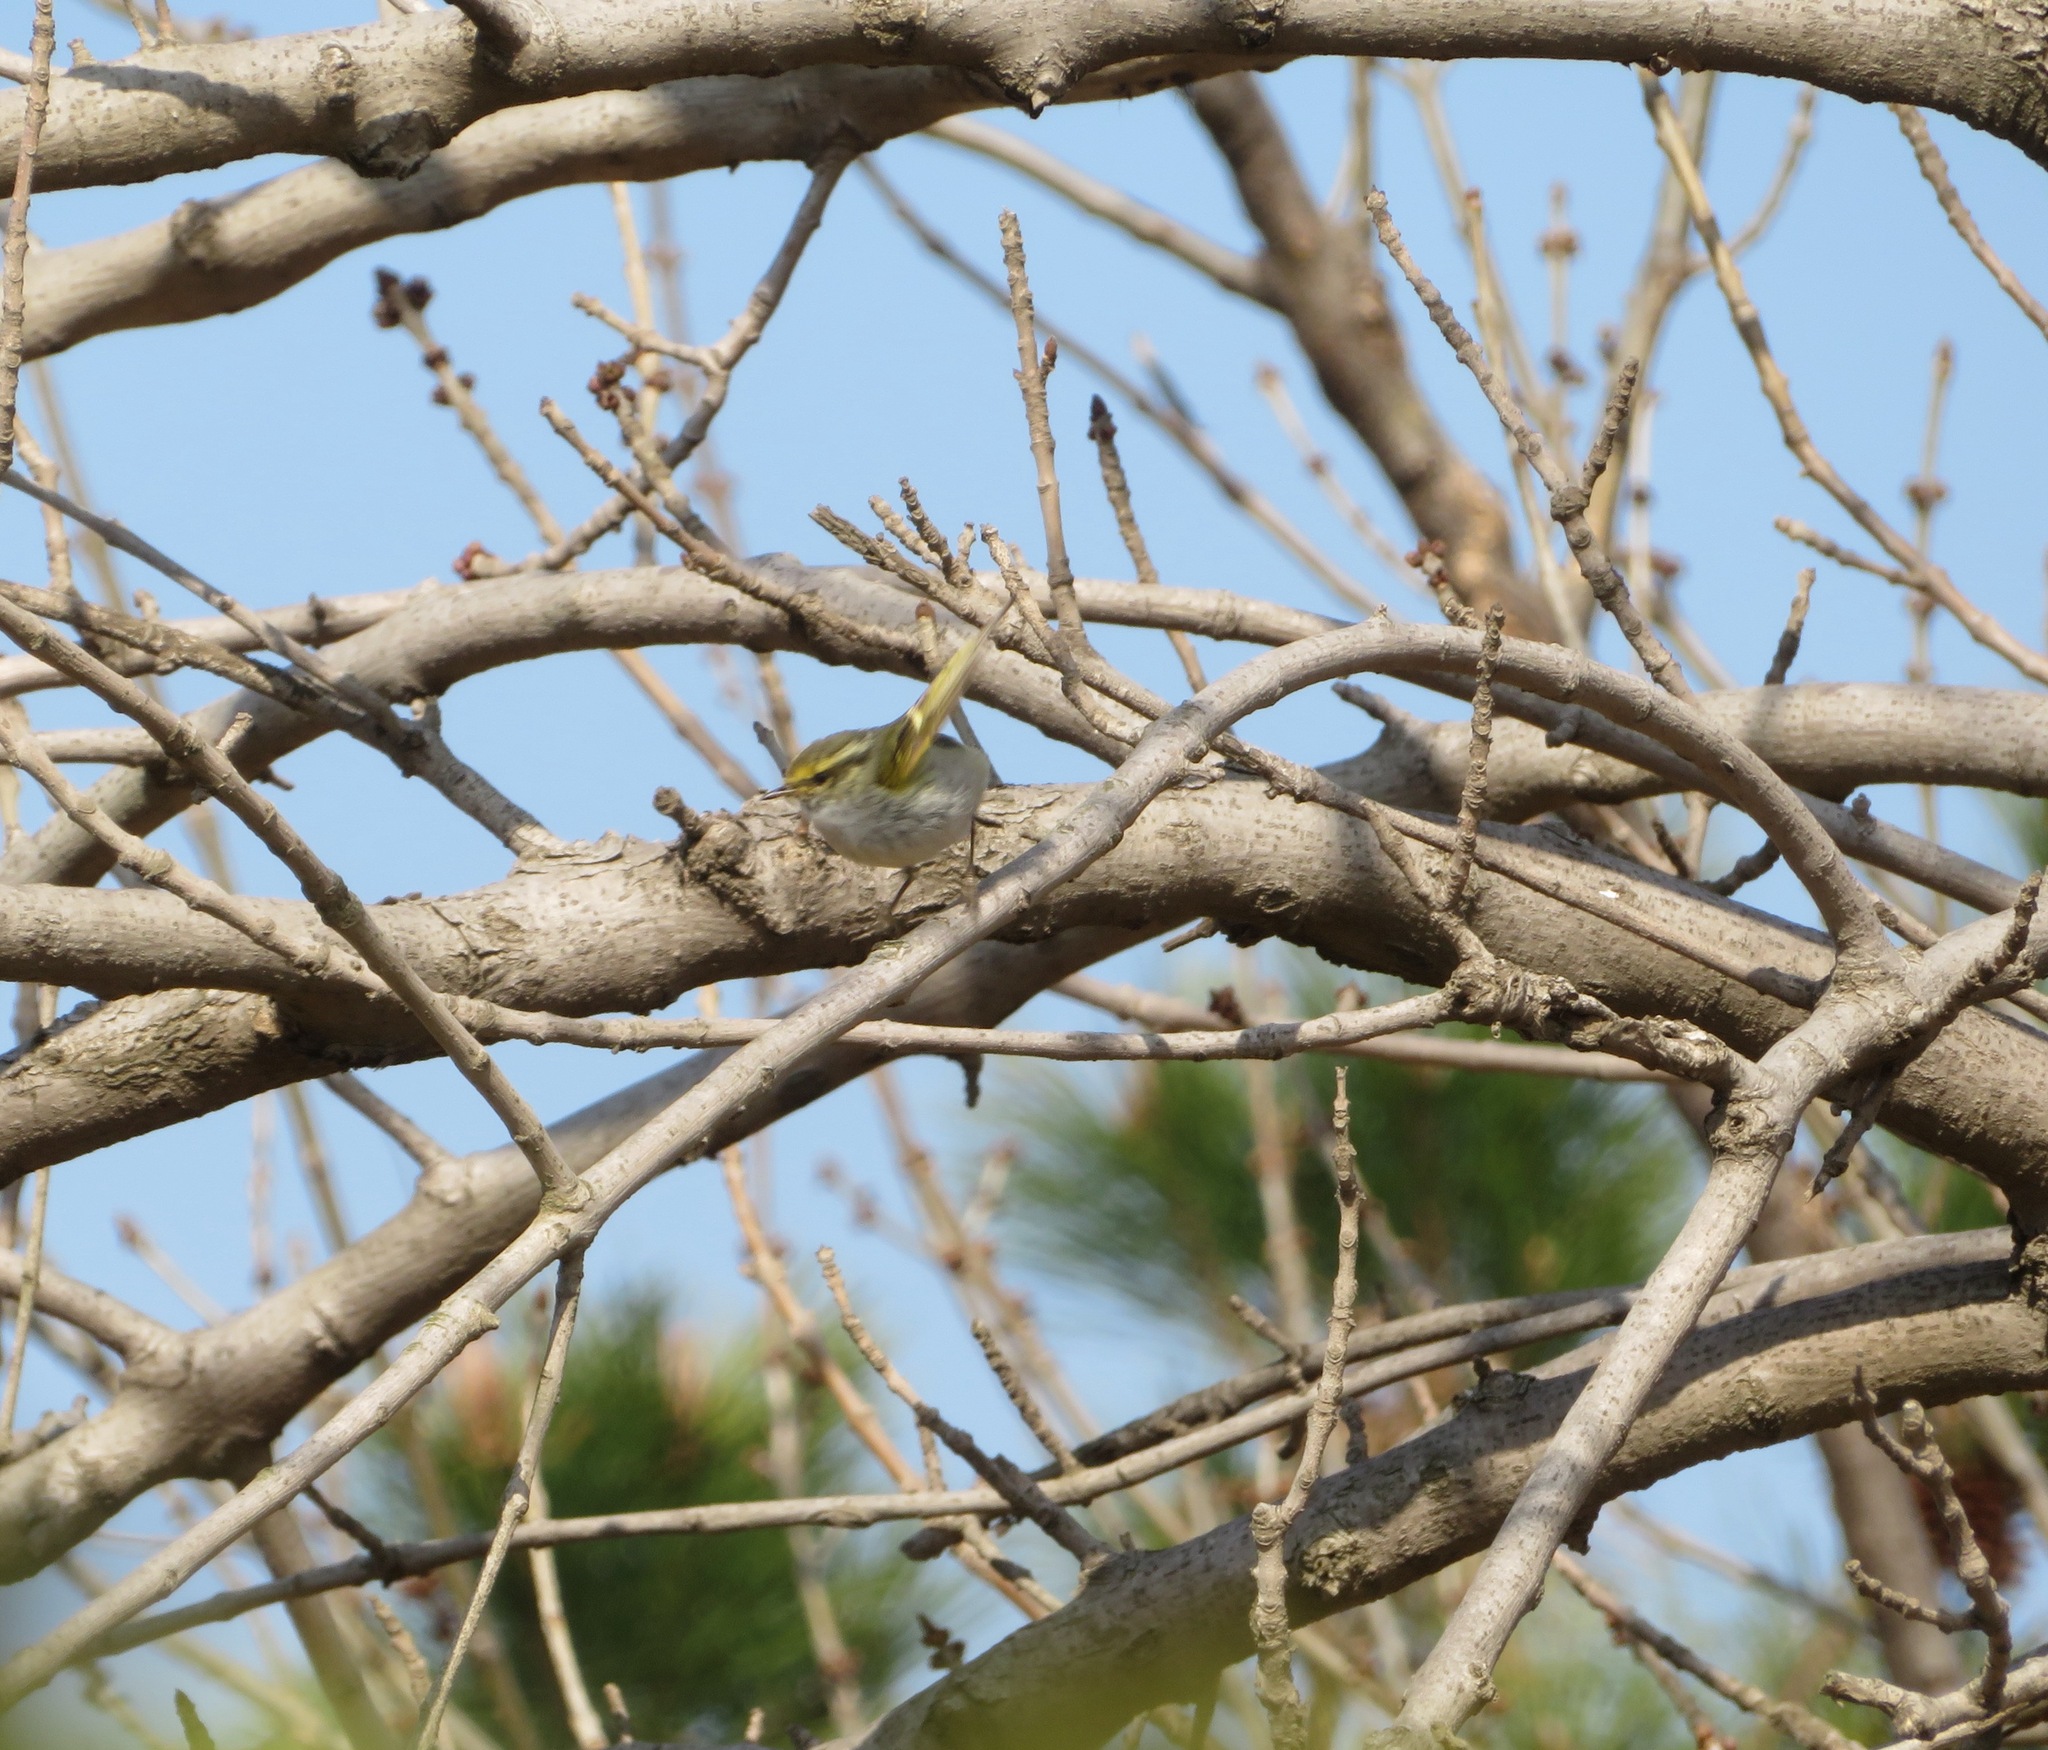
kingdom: Animalia
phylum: Chordata
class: Aves
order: Passeriformes
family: Phylloscopidae
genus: Phylloscopus
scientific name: Phylloscopus proregulus
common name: Pallas's leaf warbler
